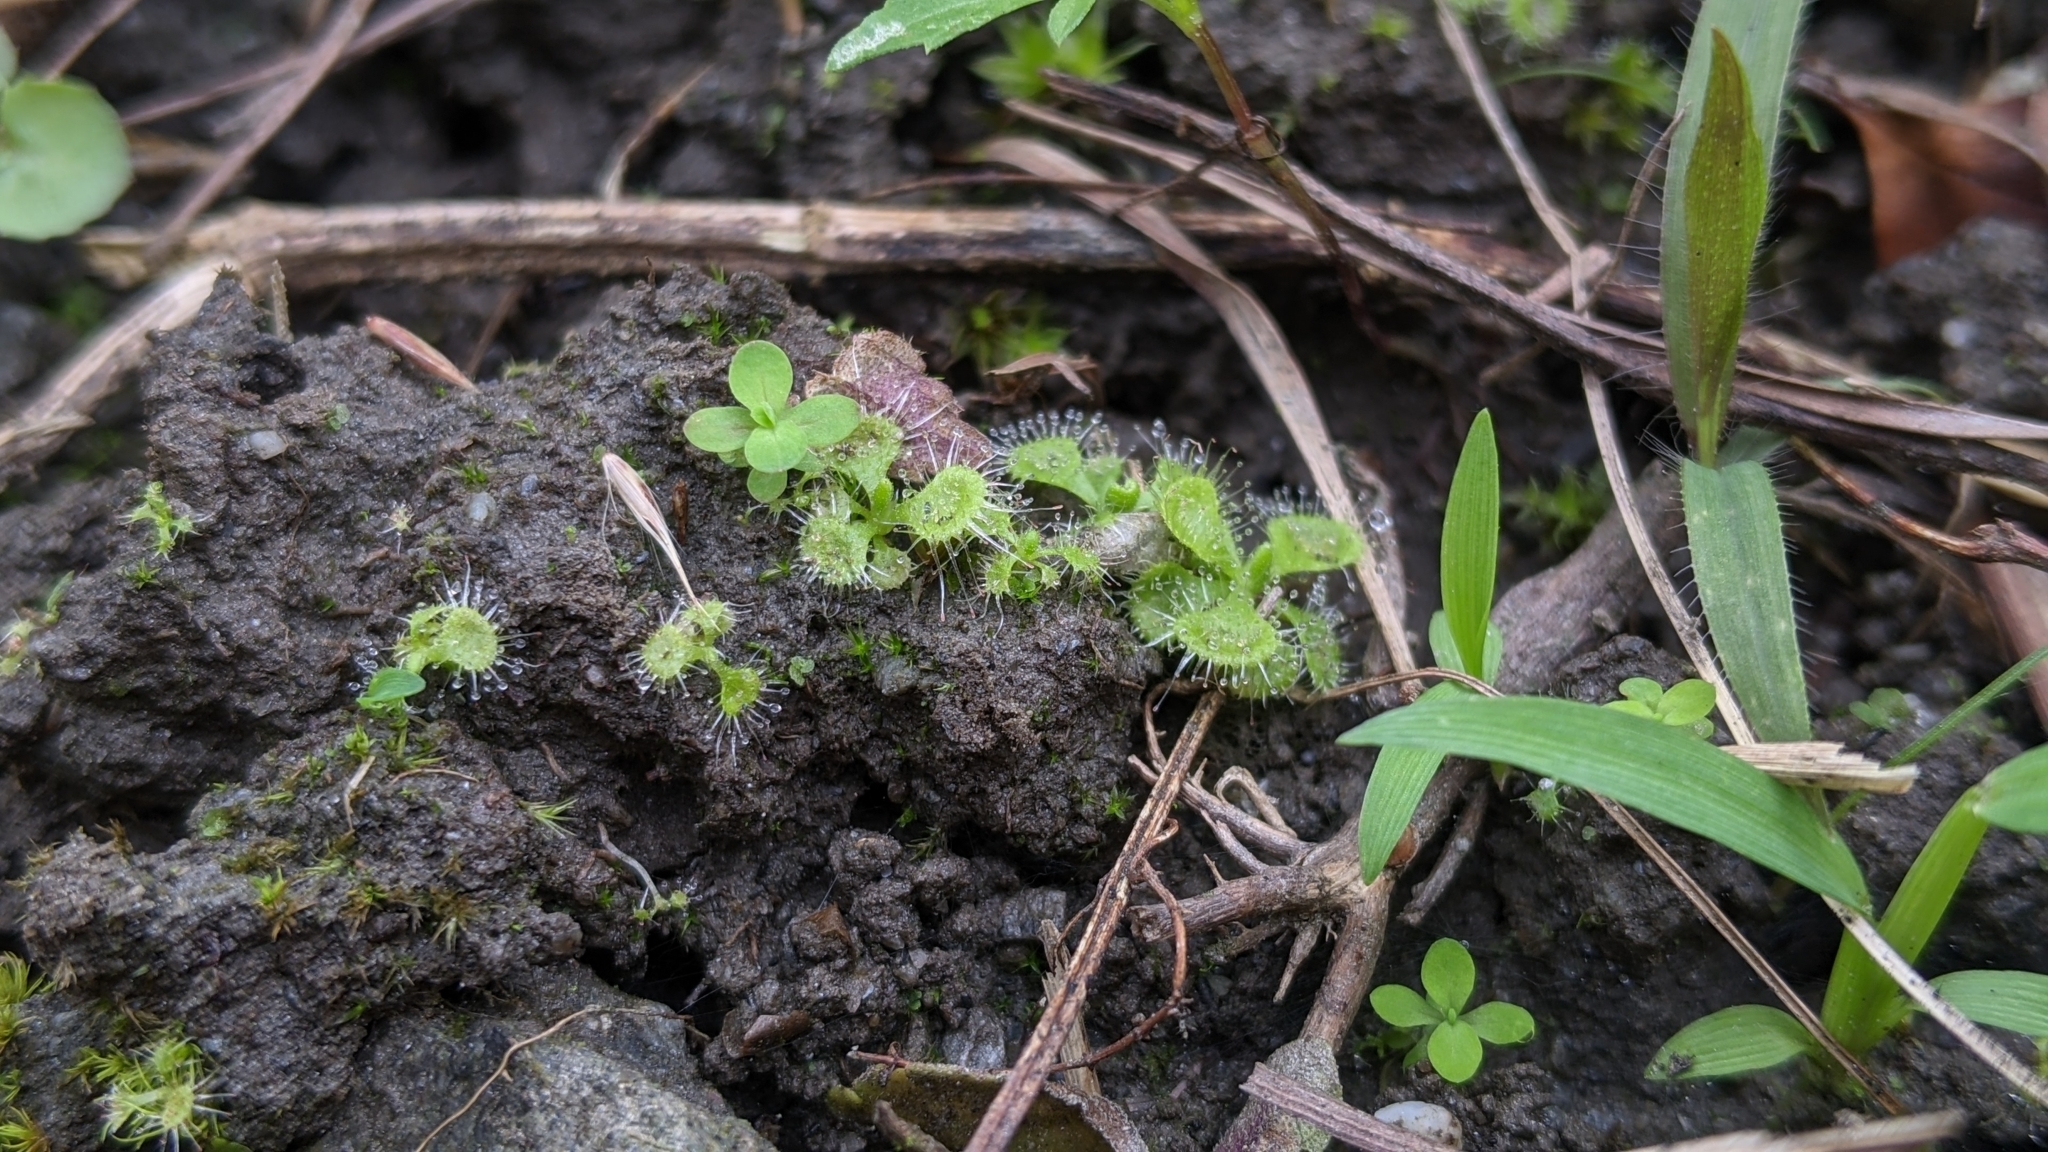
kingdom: Plantae
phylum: Tracheophyta
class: Magnoliopsida
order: Caryophyllales
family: Droseraceae
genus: Drosera
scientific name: Drosera spatulata
